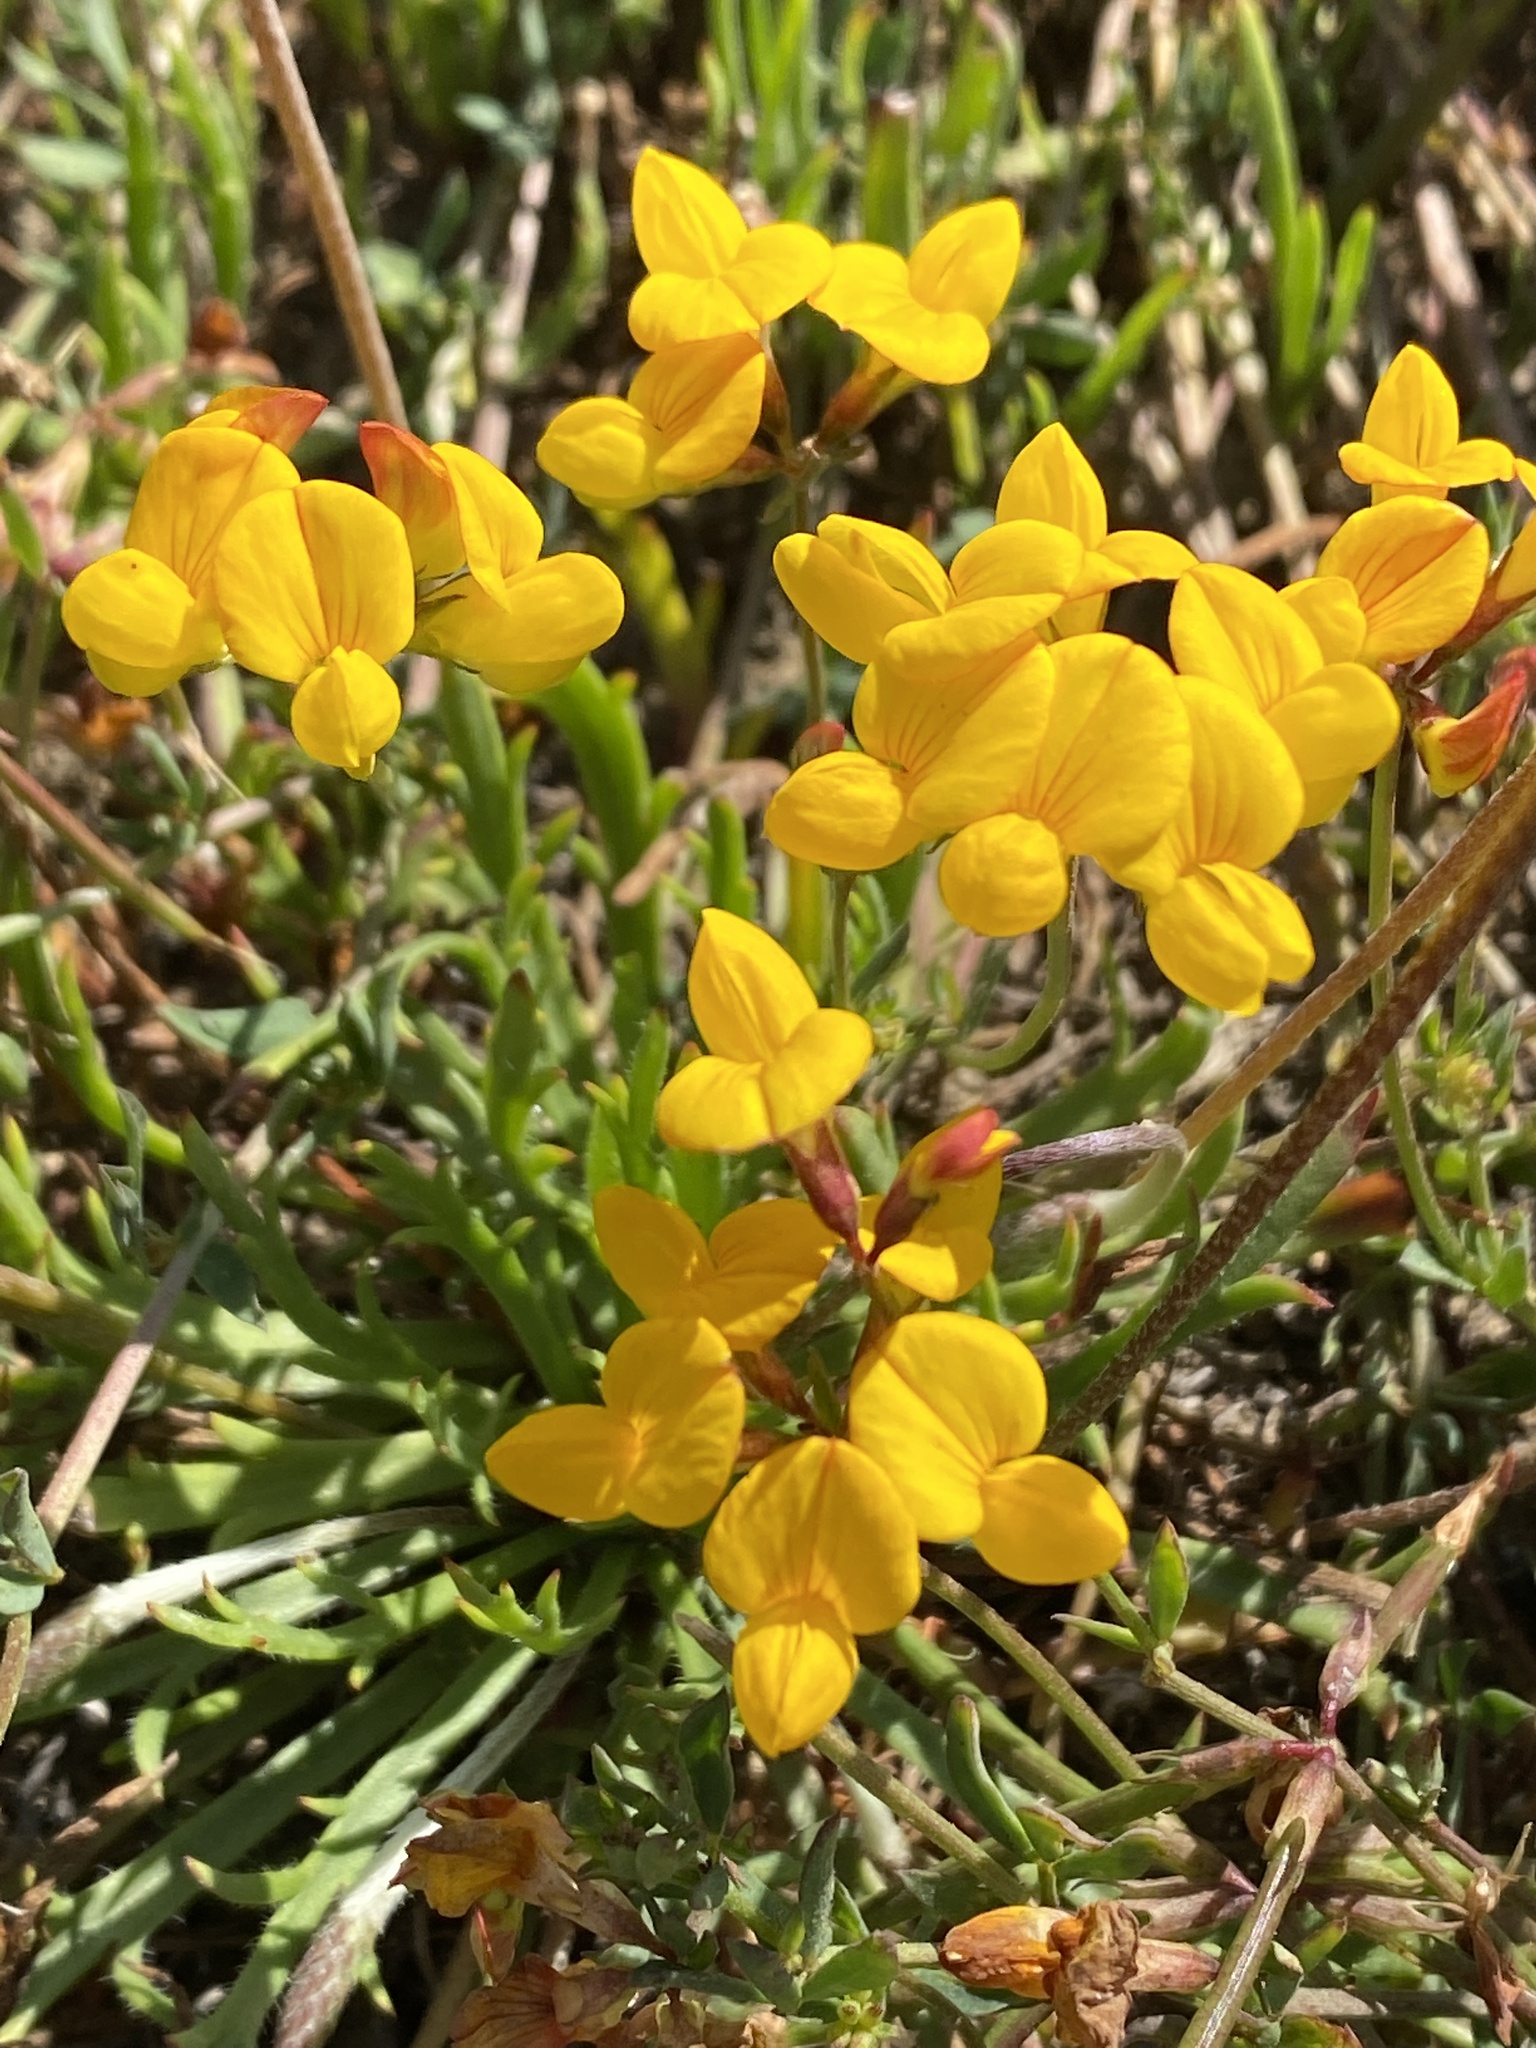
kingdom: Plantae
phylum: Tracheophyta
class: Magnoliopsida
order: Fabales
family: Fabaceae
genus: Lotus
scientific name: Lotus corniculatus
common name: Common bird's-foot-trefoil
